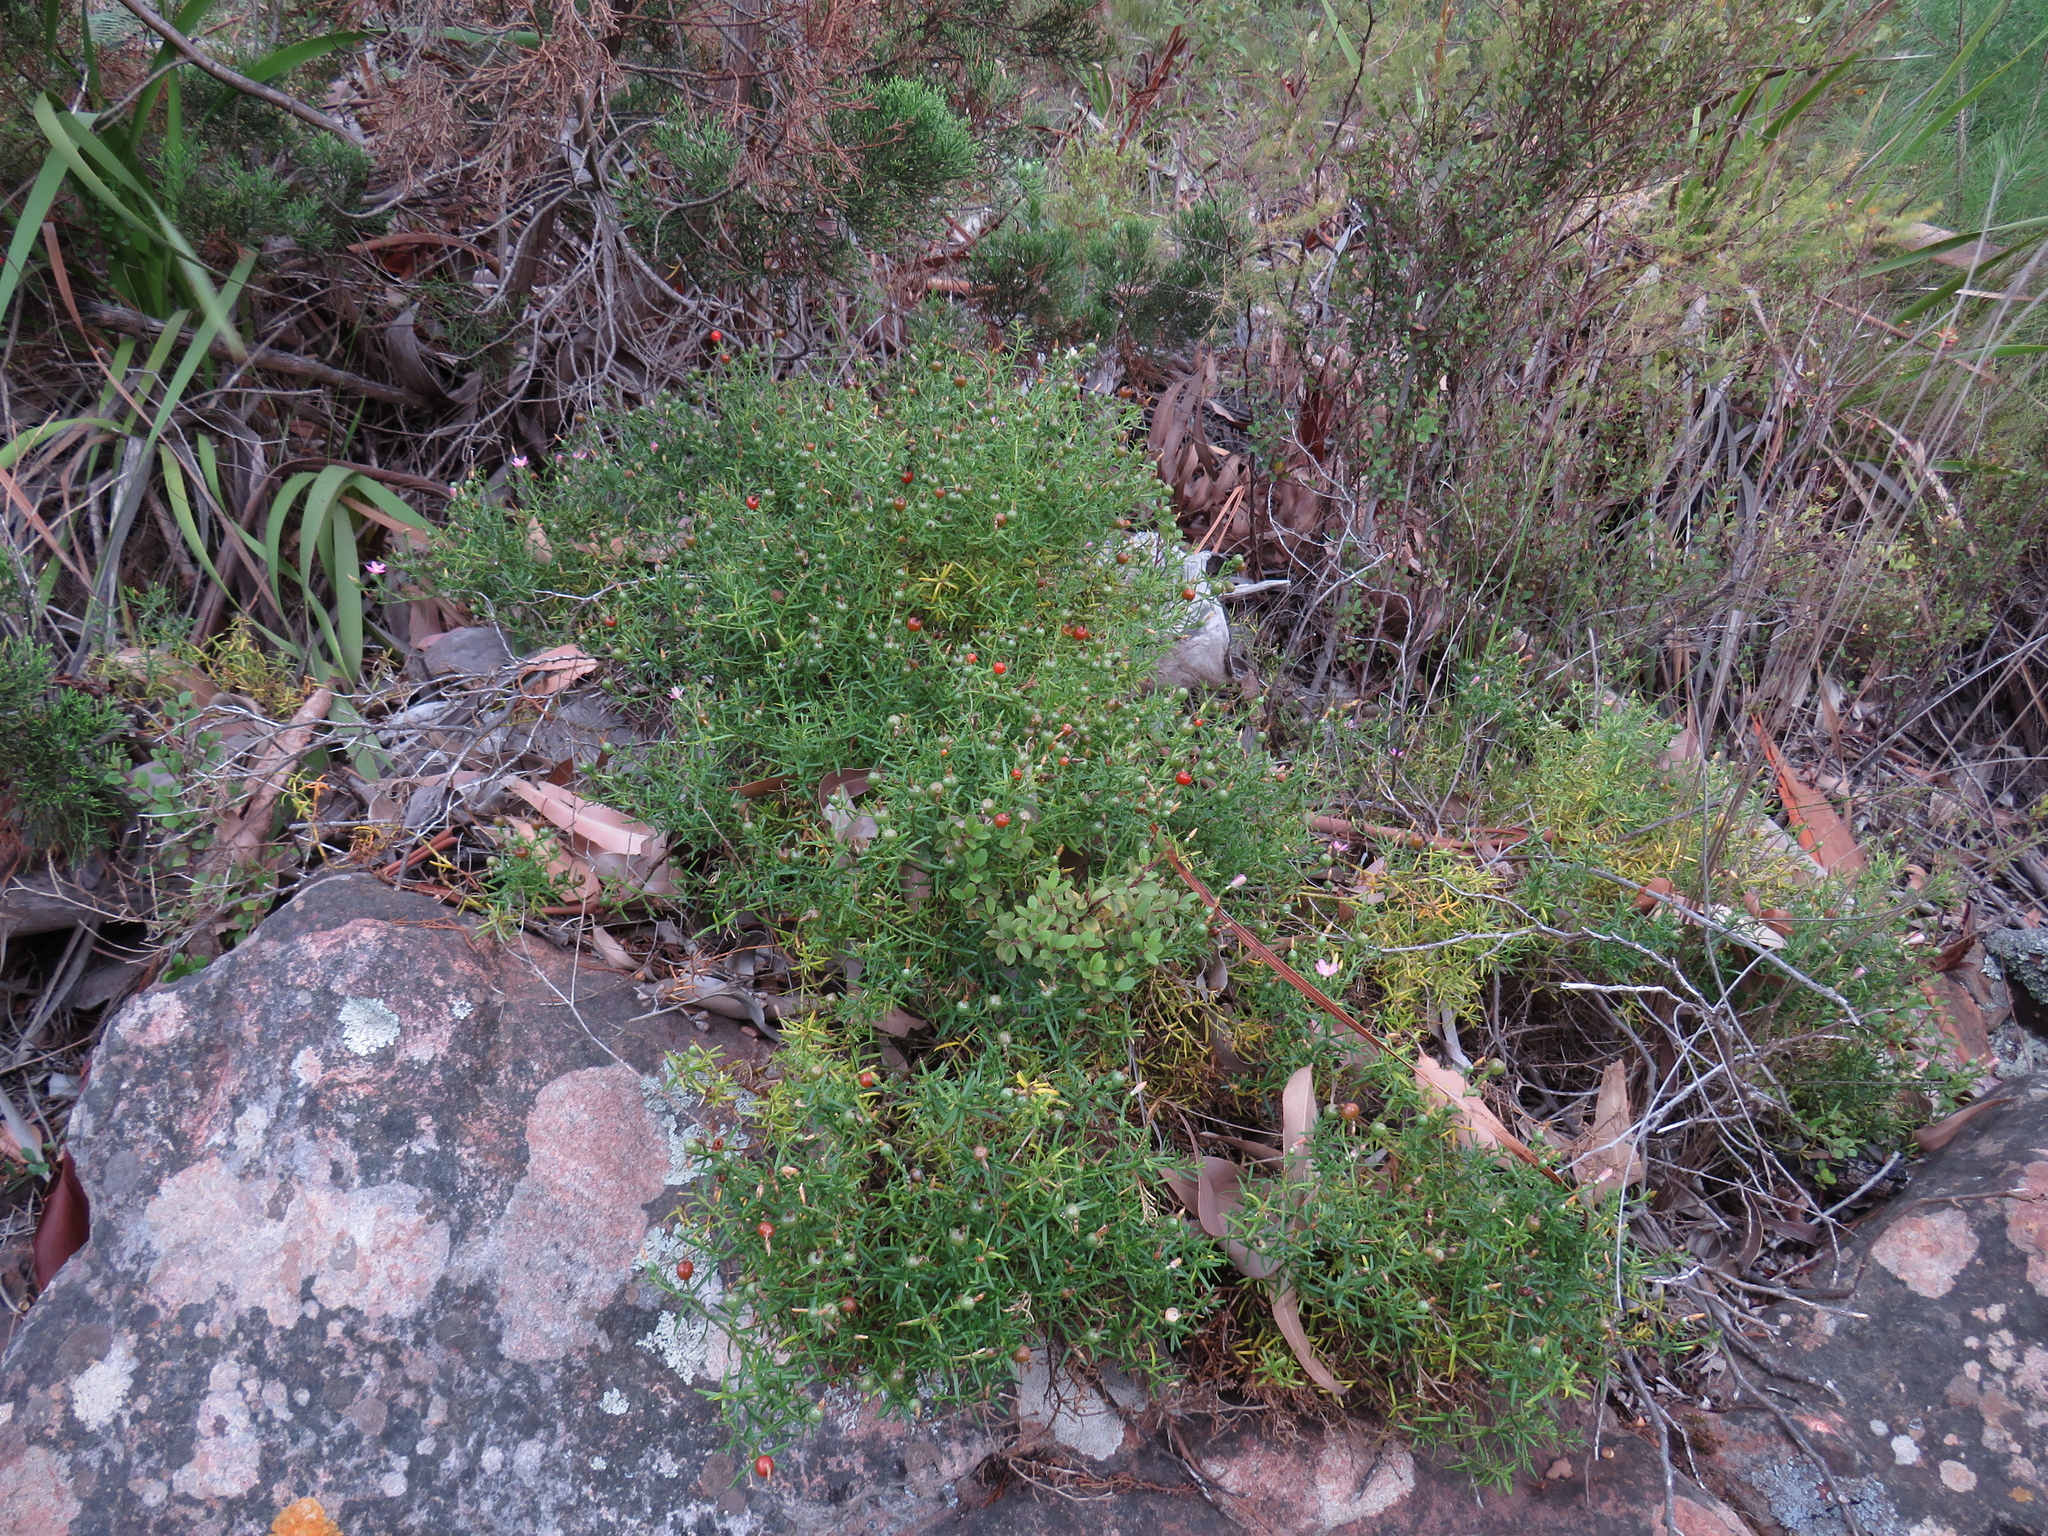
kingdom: Plantae
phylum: Tracheophyta
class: Magnoliopsida
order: Gentianales
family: Gentianaceae
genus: Chironia
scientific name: Chironia baccifera
